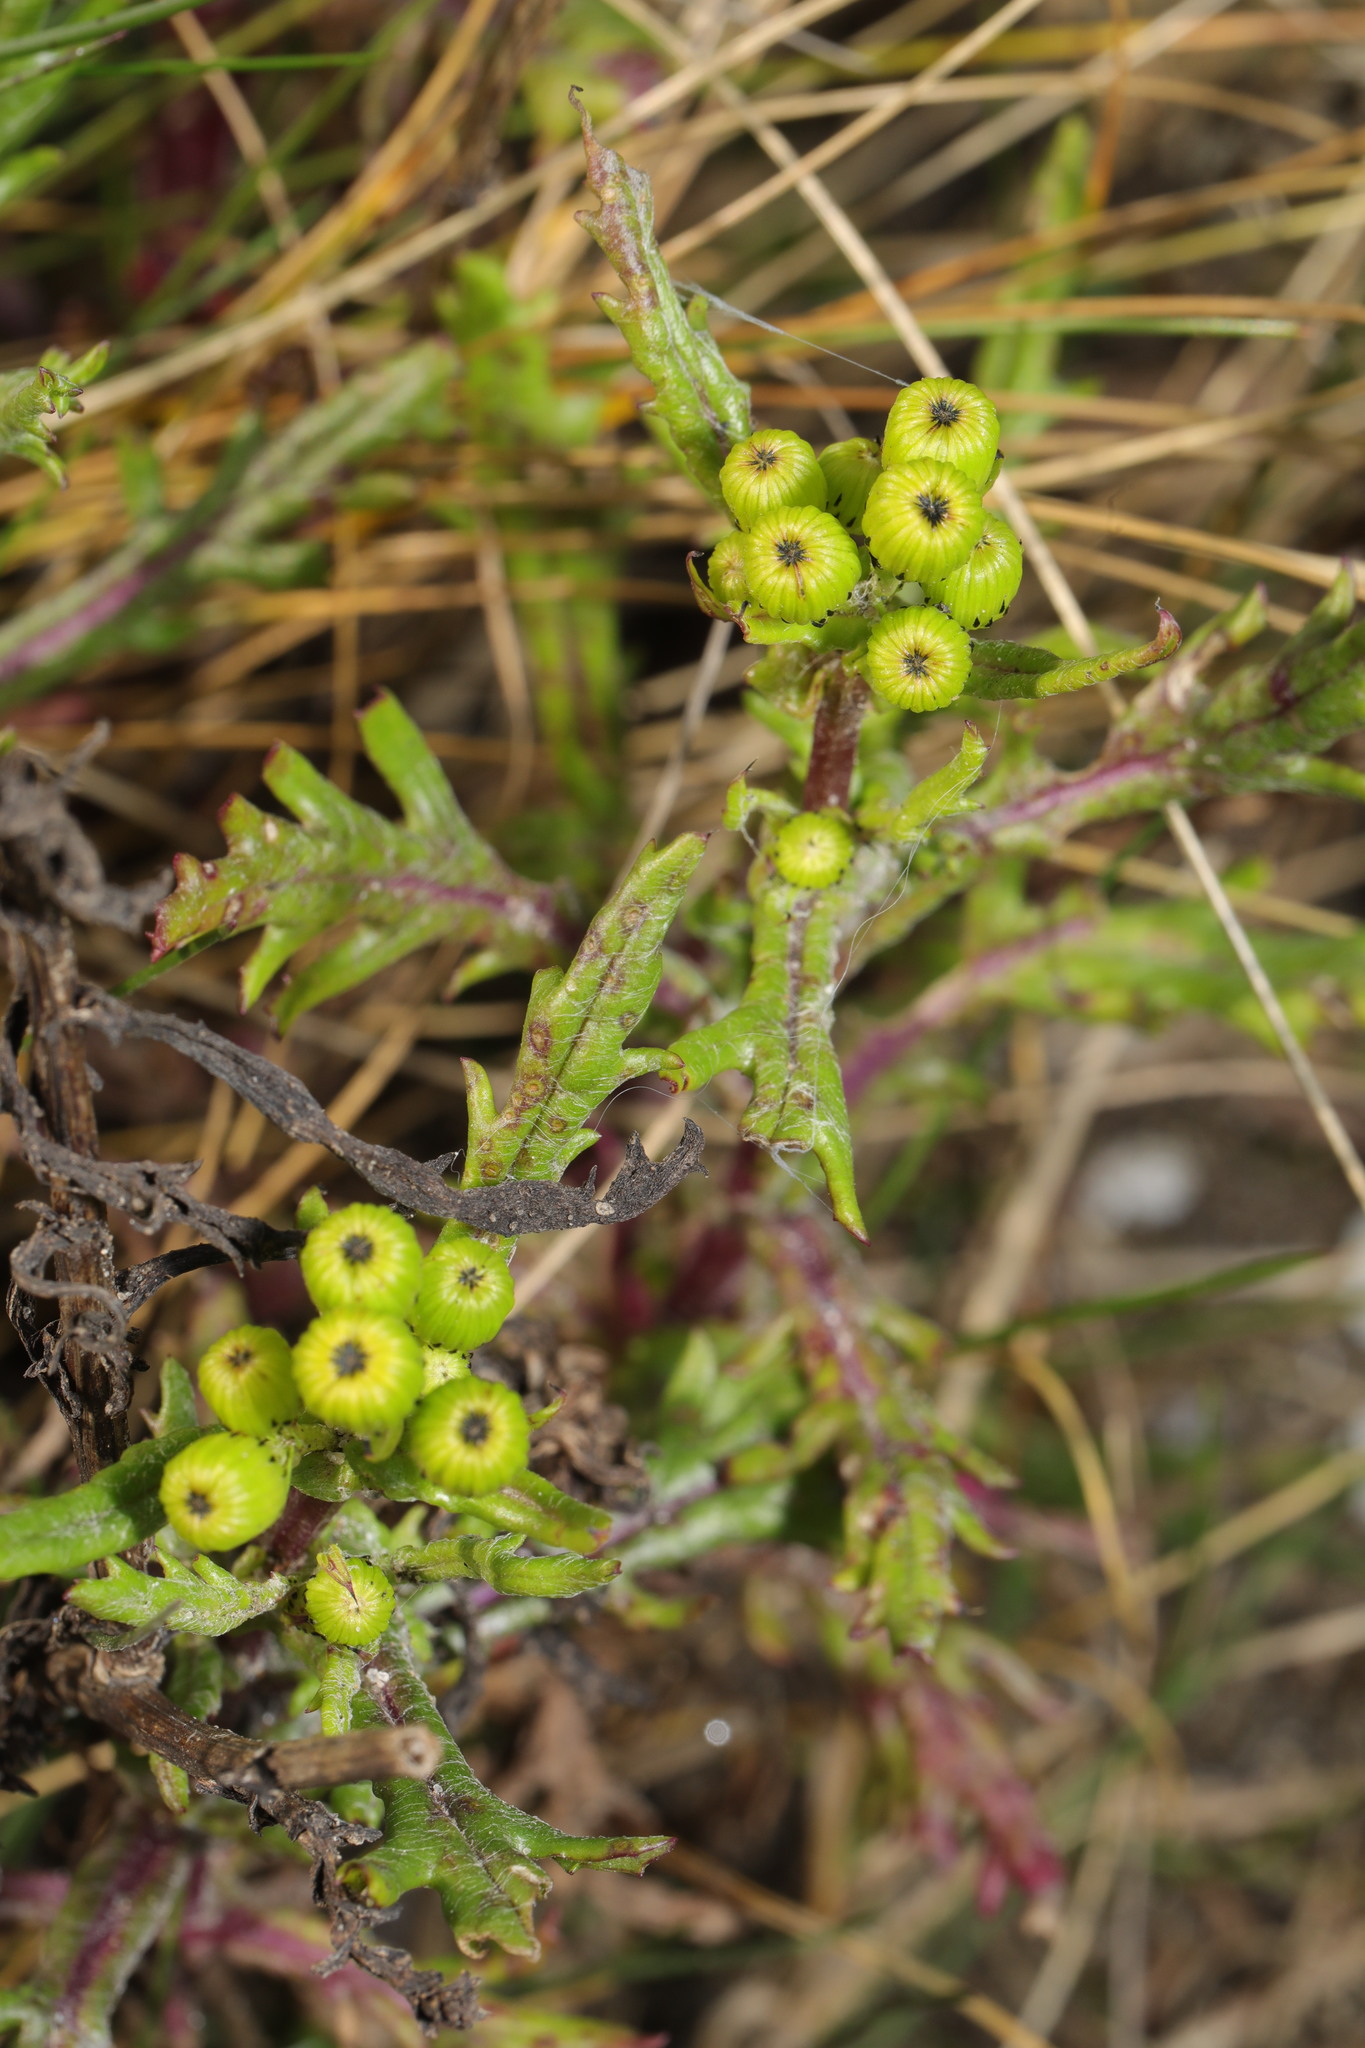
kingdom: Plantae
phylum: Tracheophyta
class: Magnoliopsida
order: Asterales
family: Asteraceae
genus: Senecio
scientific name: Senecio squalidus
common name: Oxford ragwort
